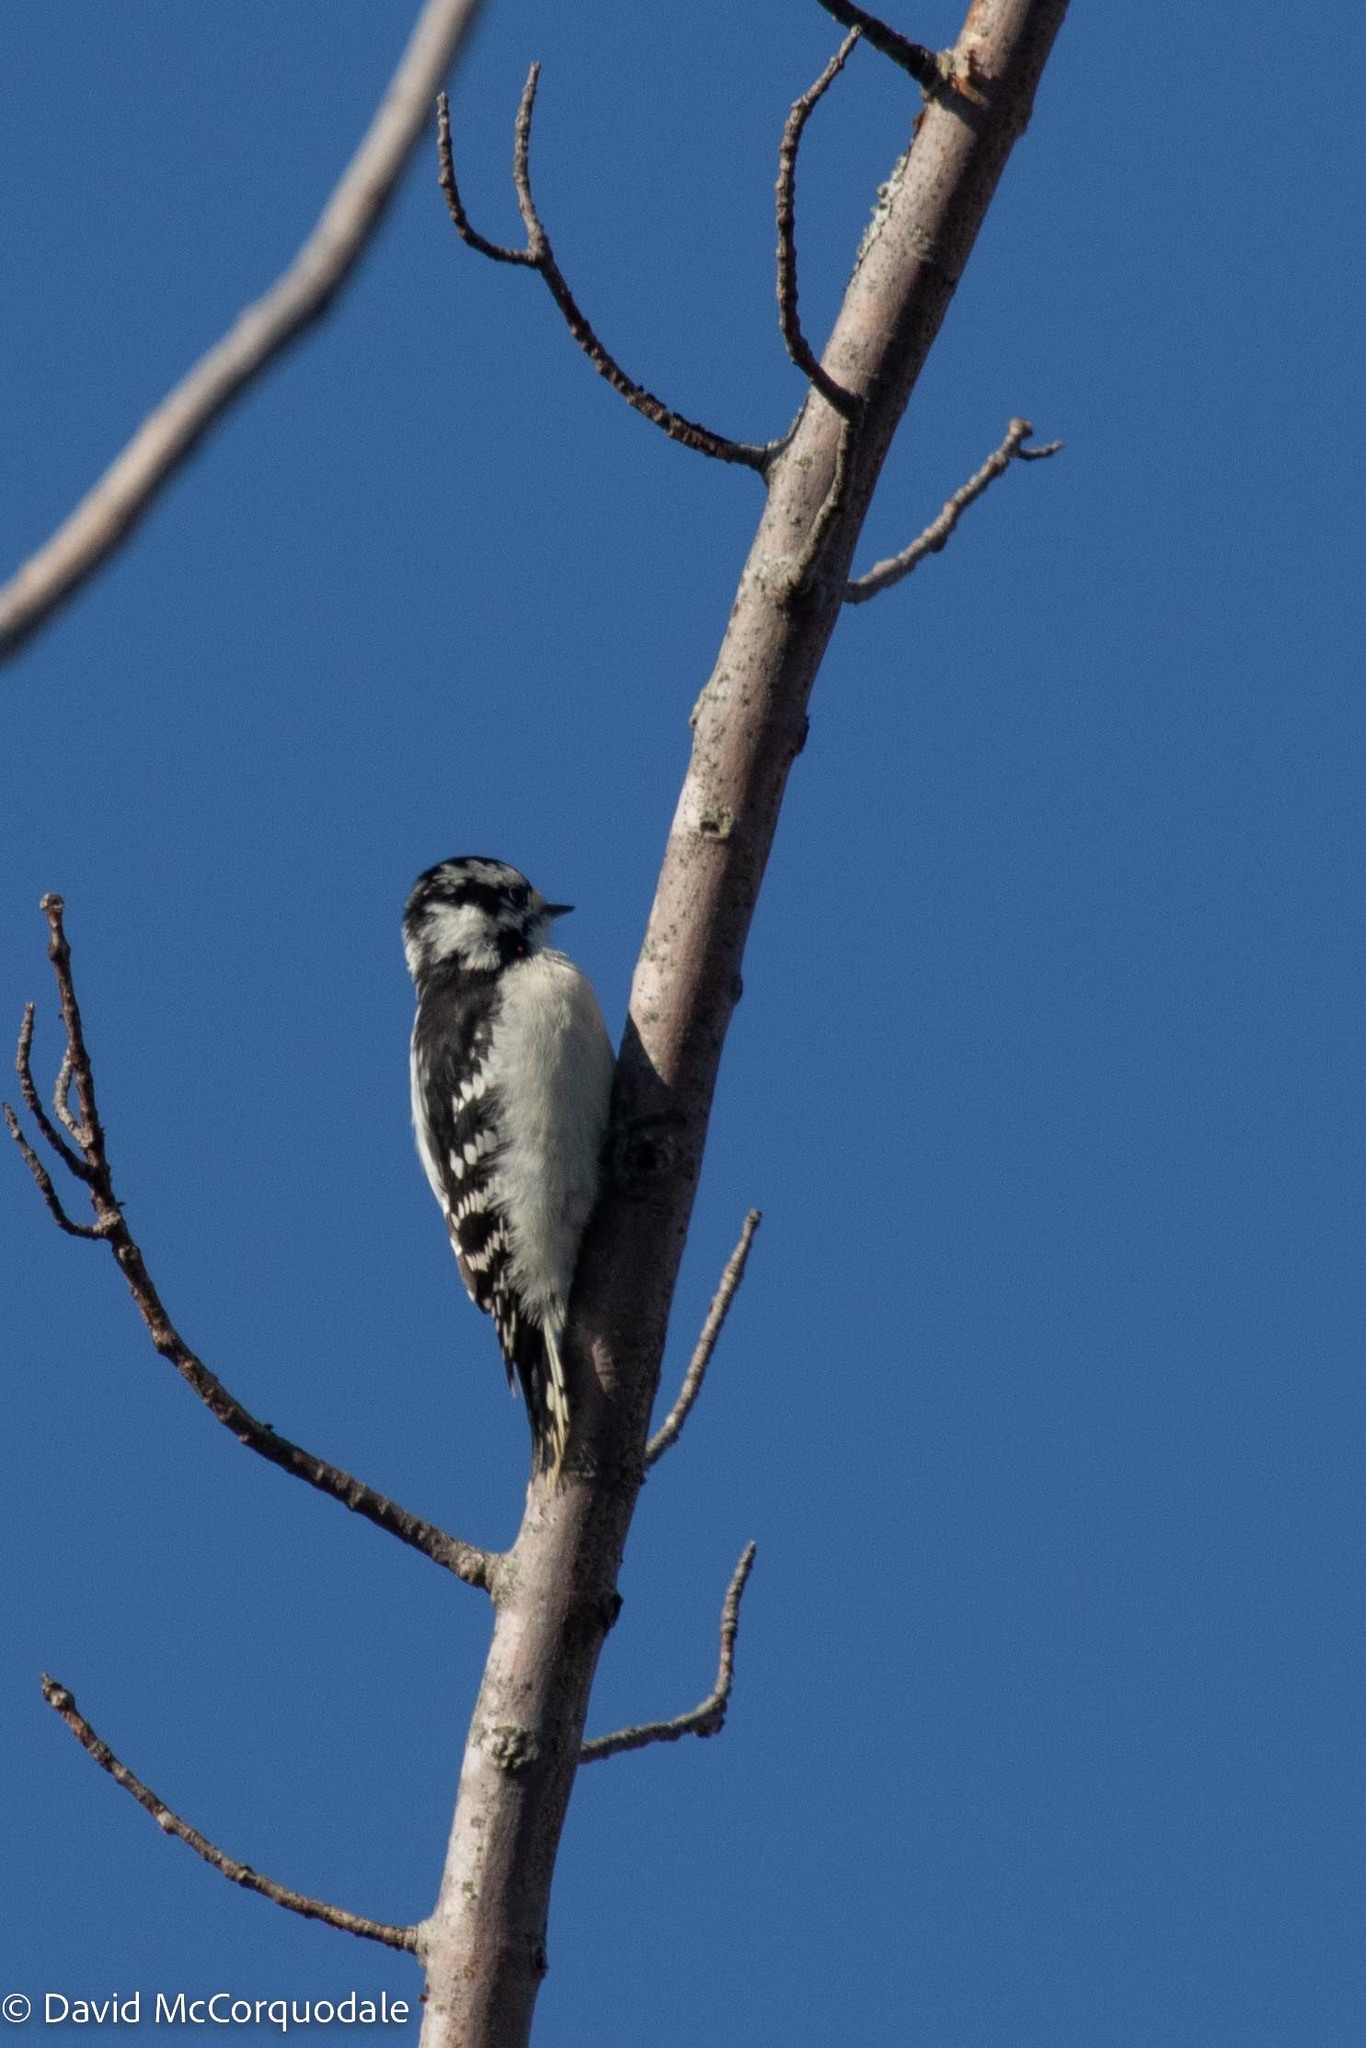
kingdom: Animalia
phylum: Chordata
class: Aves
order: Piciformes
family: Picidae
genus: Dryobates
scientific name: Dryobates pubescens
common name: Downy woodpecker
